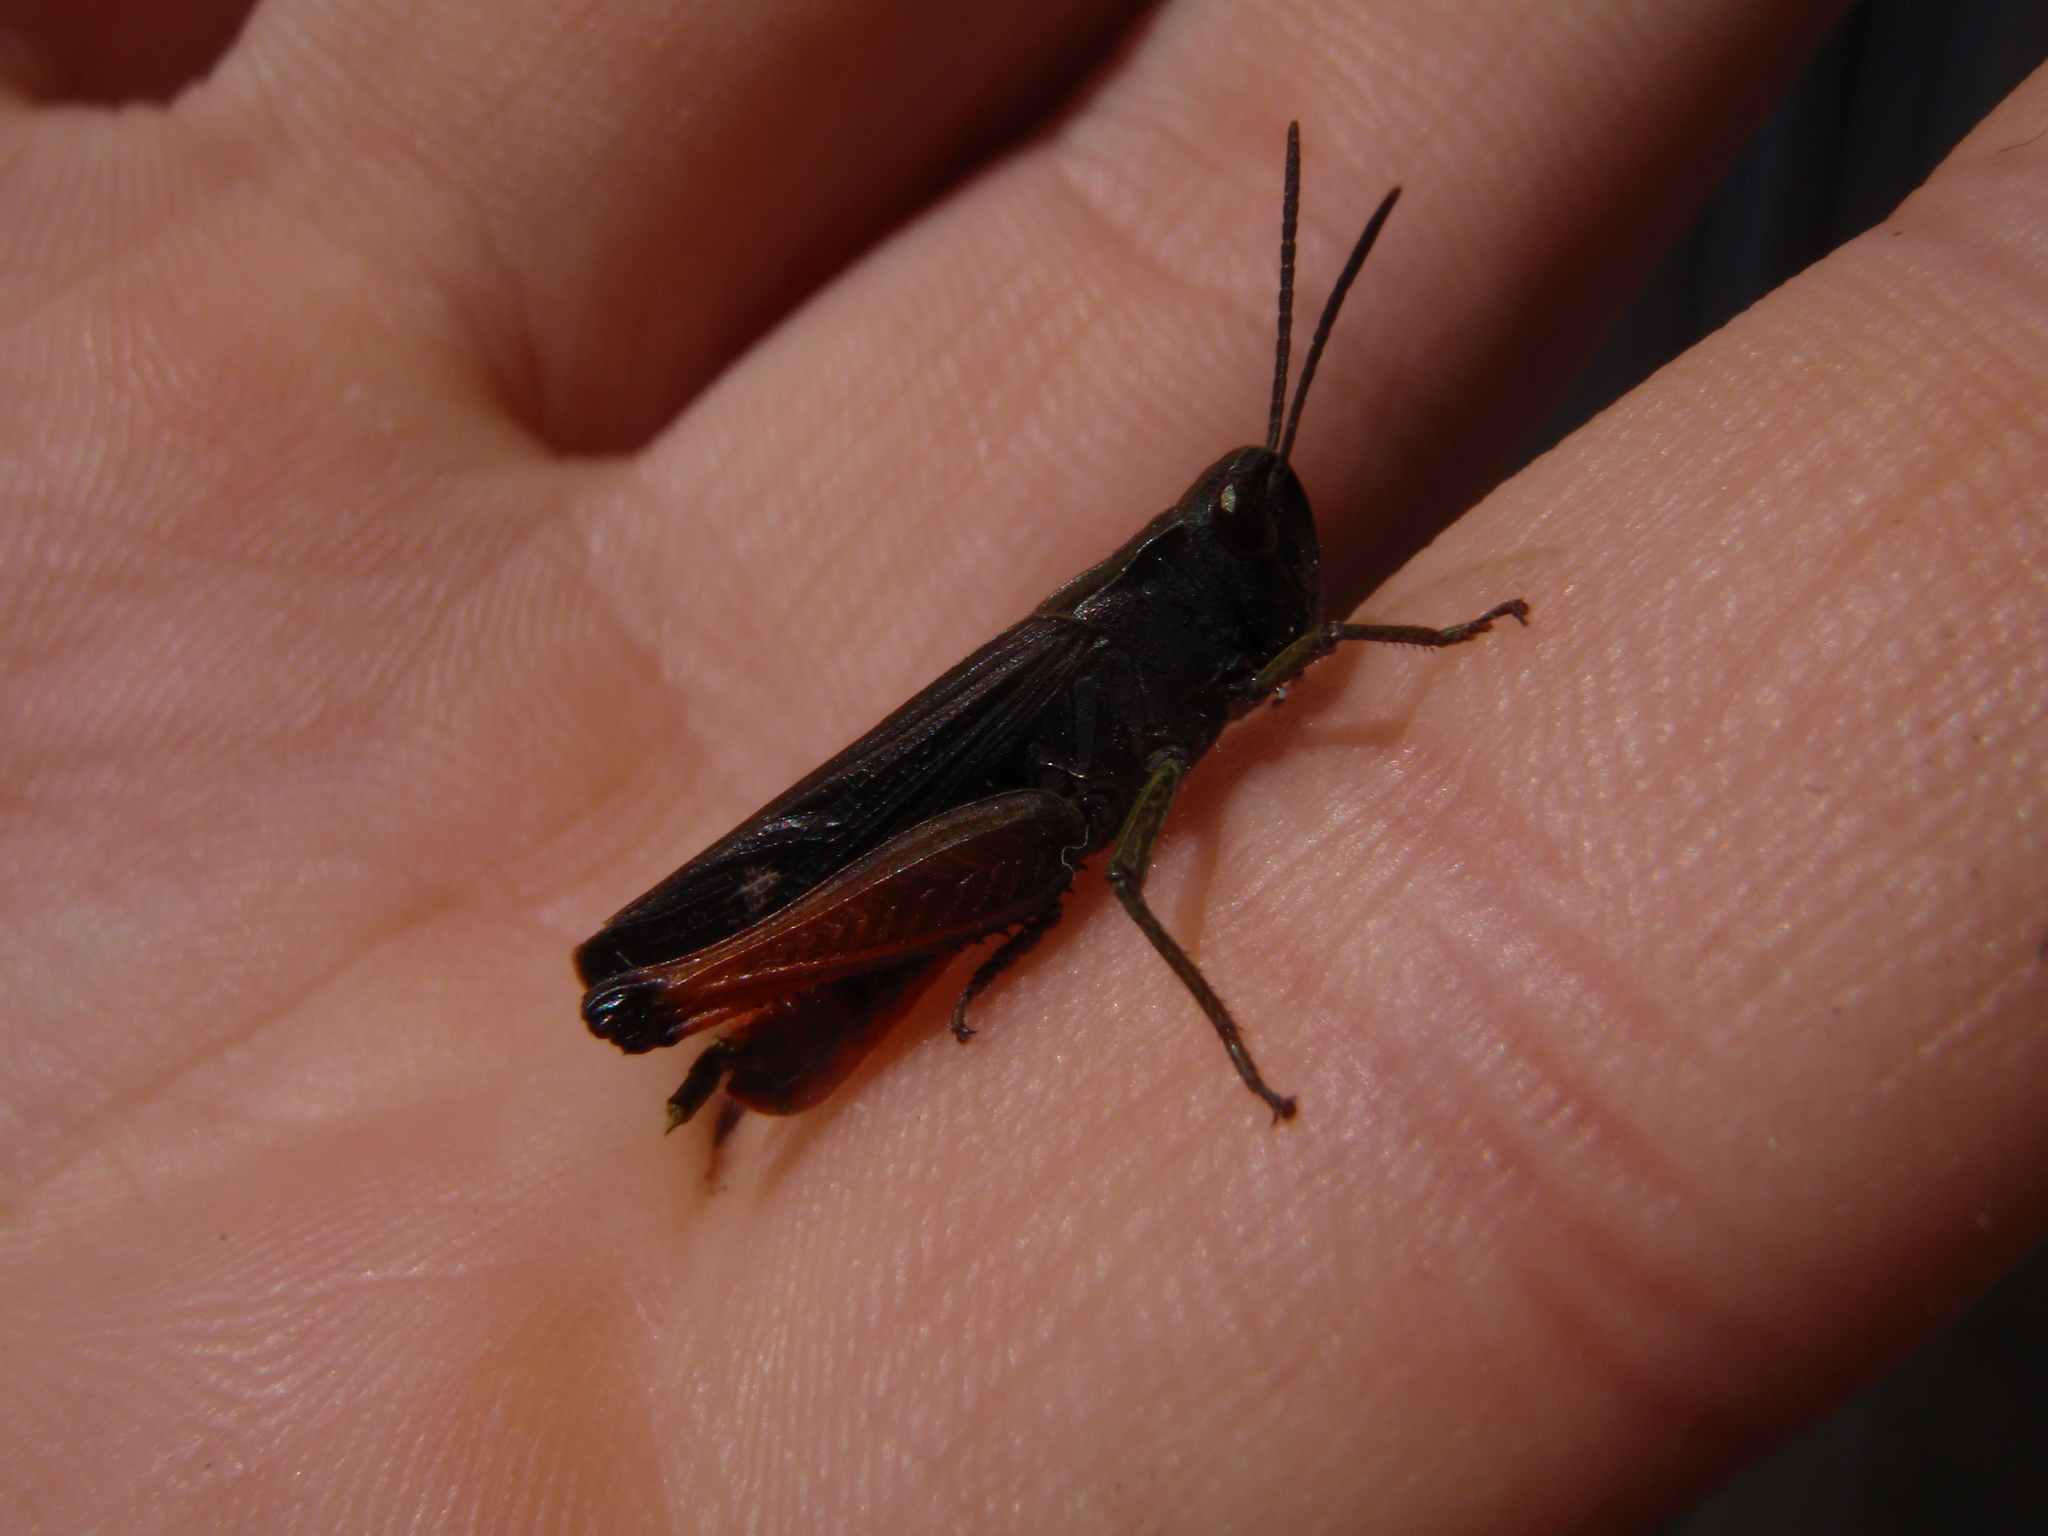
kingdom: Animalia
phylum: Arthropoda
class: Insecta
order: Orthoptera
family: Acrididae
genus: Omocestus
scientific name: Omocestus rufipes
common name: Woodland grasshopper
